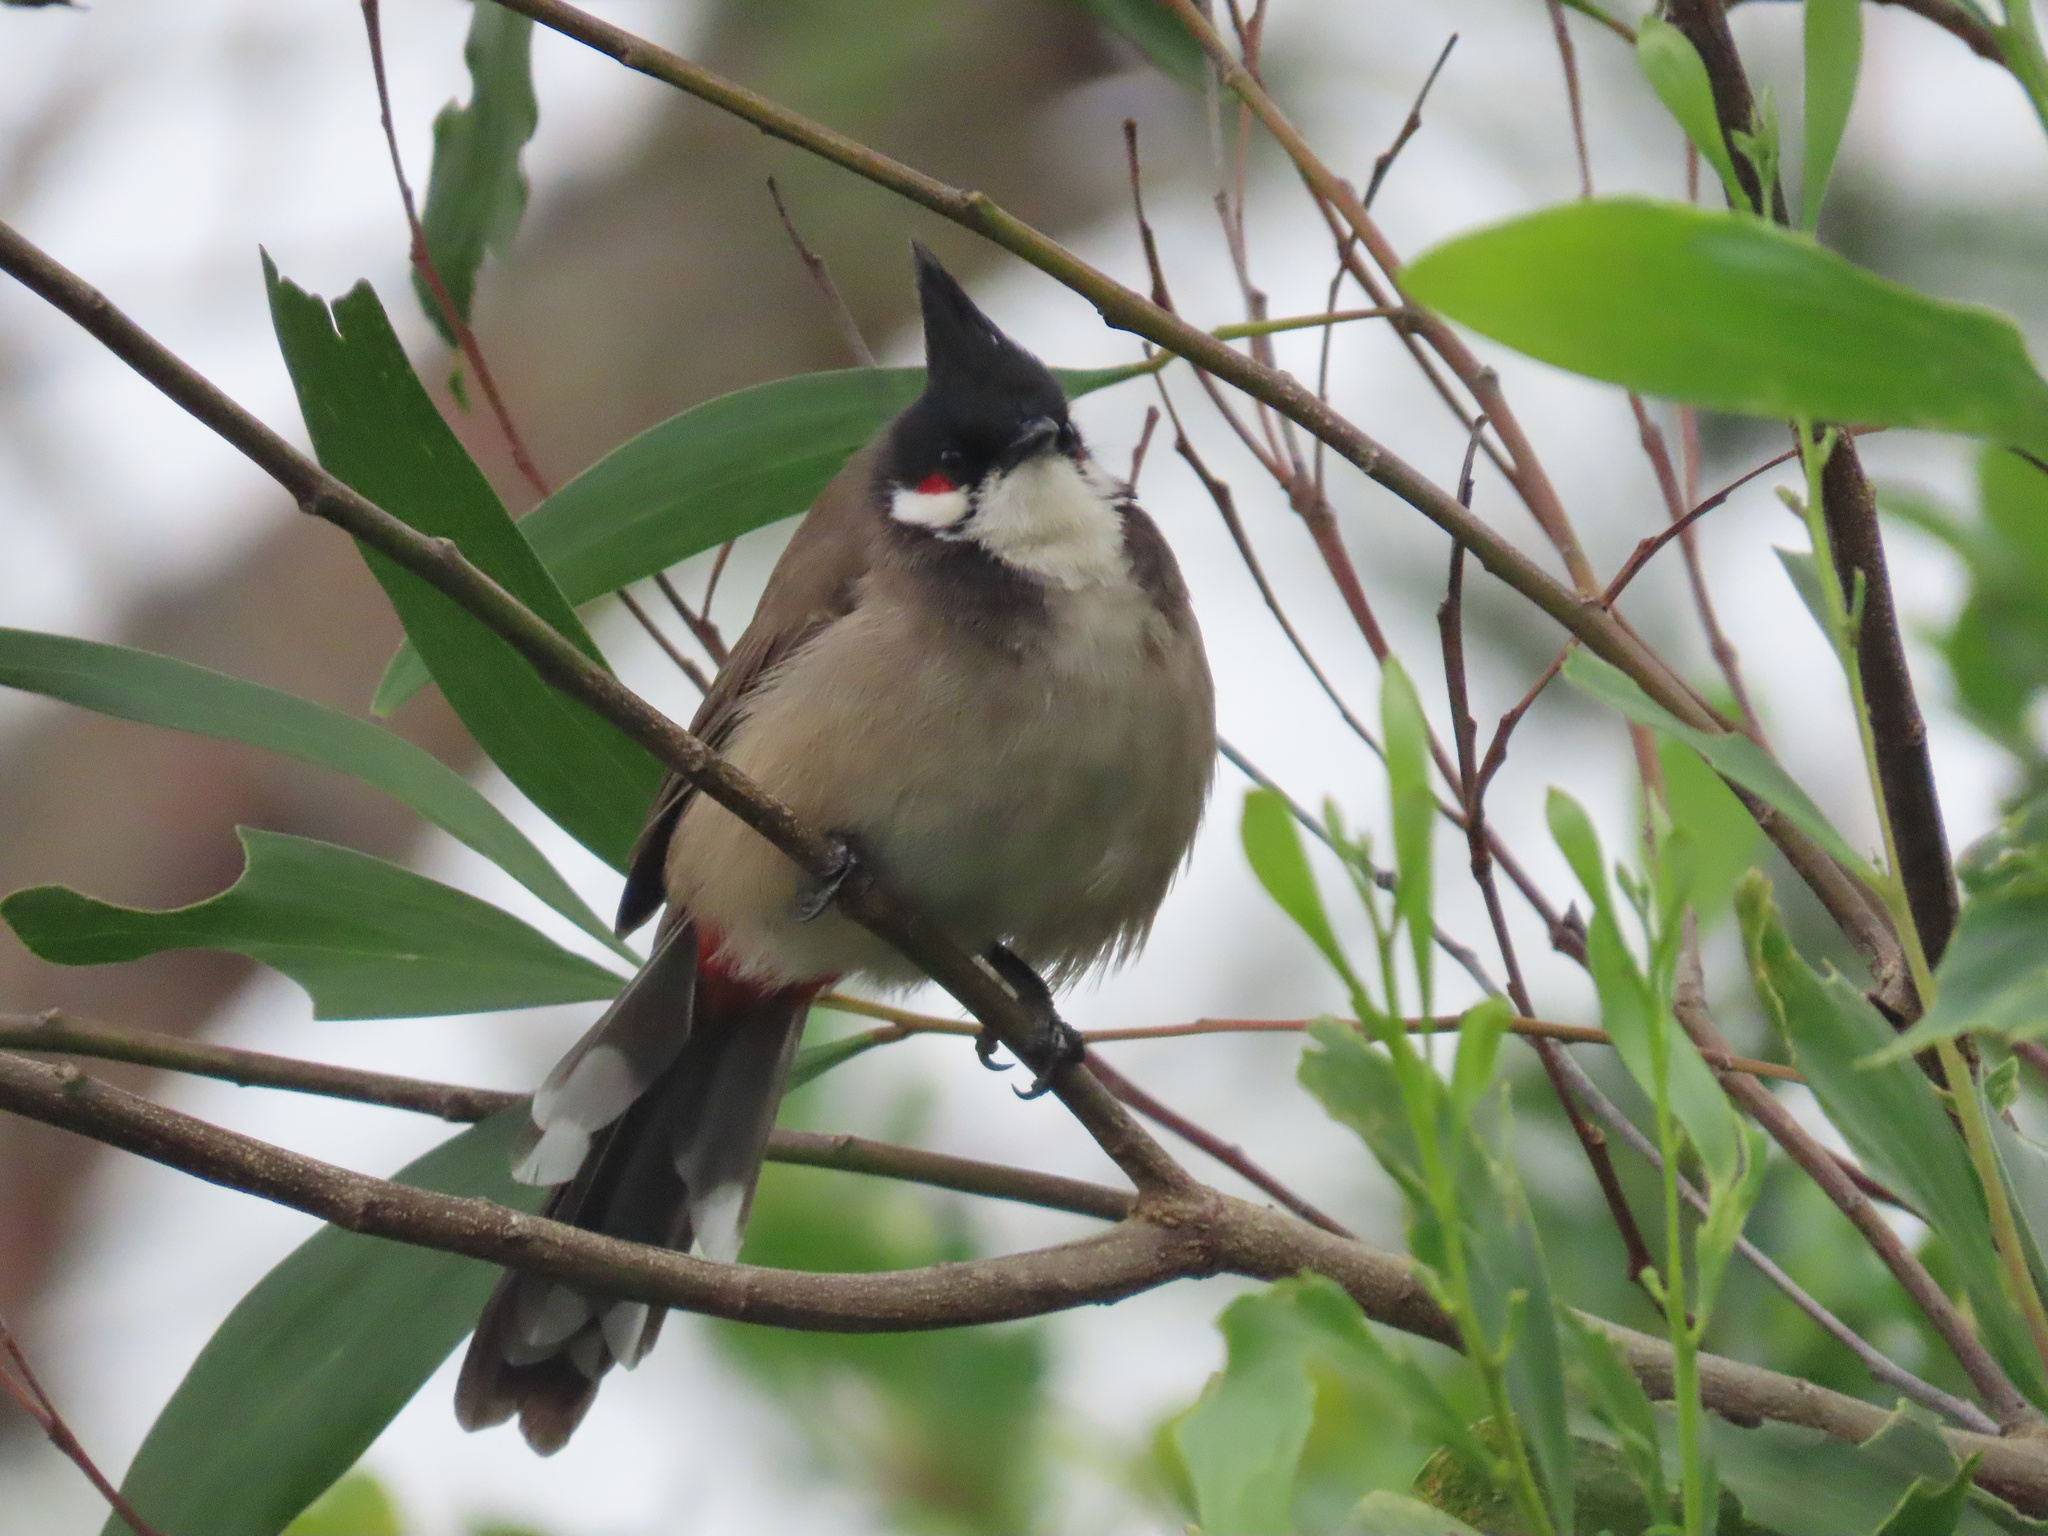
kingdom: Animalia
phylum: Chordata
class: Aves
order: Passeriformes
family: Pycnonotidae
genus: Pycnonotus
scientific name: Pycnonotus jocosus
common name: Red-whiskered bulbul
